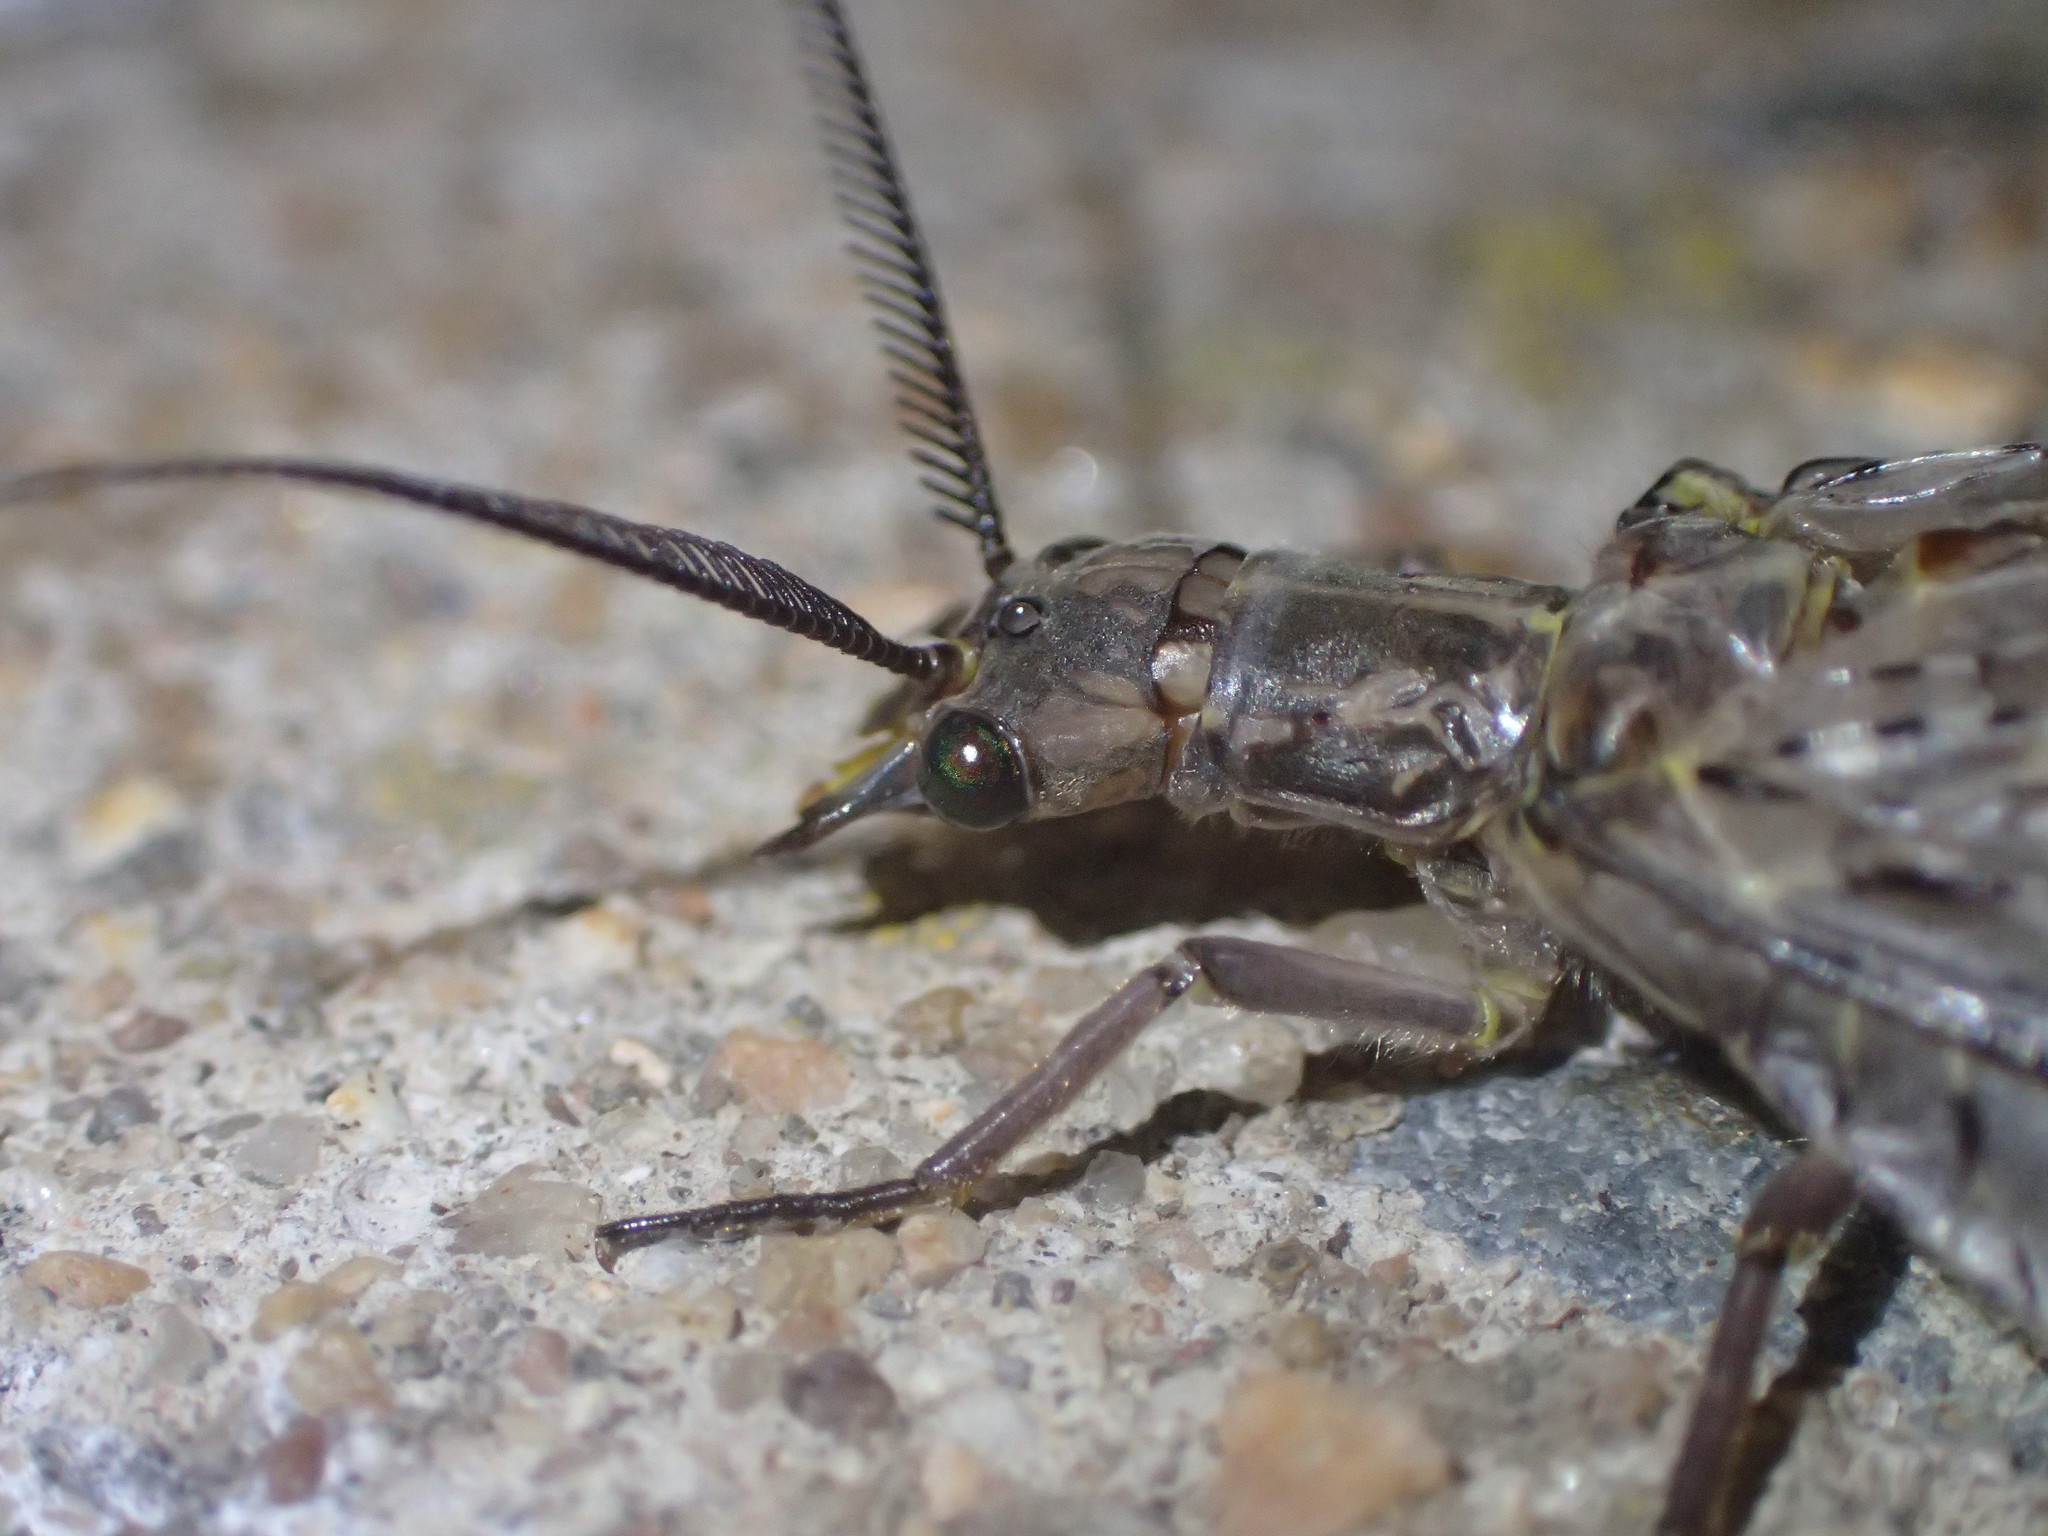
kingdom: Animalia
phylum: Arthropoda
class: Insecta
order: Megaloptera
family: Corydalidae
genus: Chauliodes
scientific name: Chauliodes pectinicornis
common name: Summer fishfly
